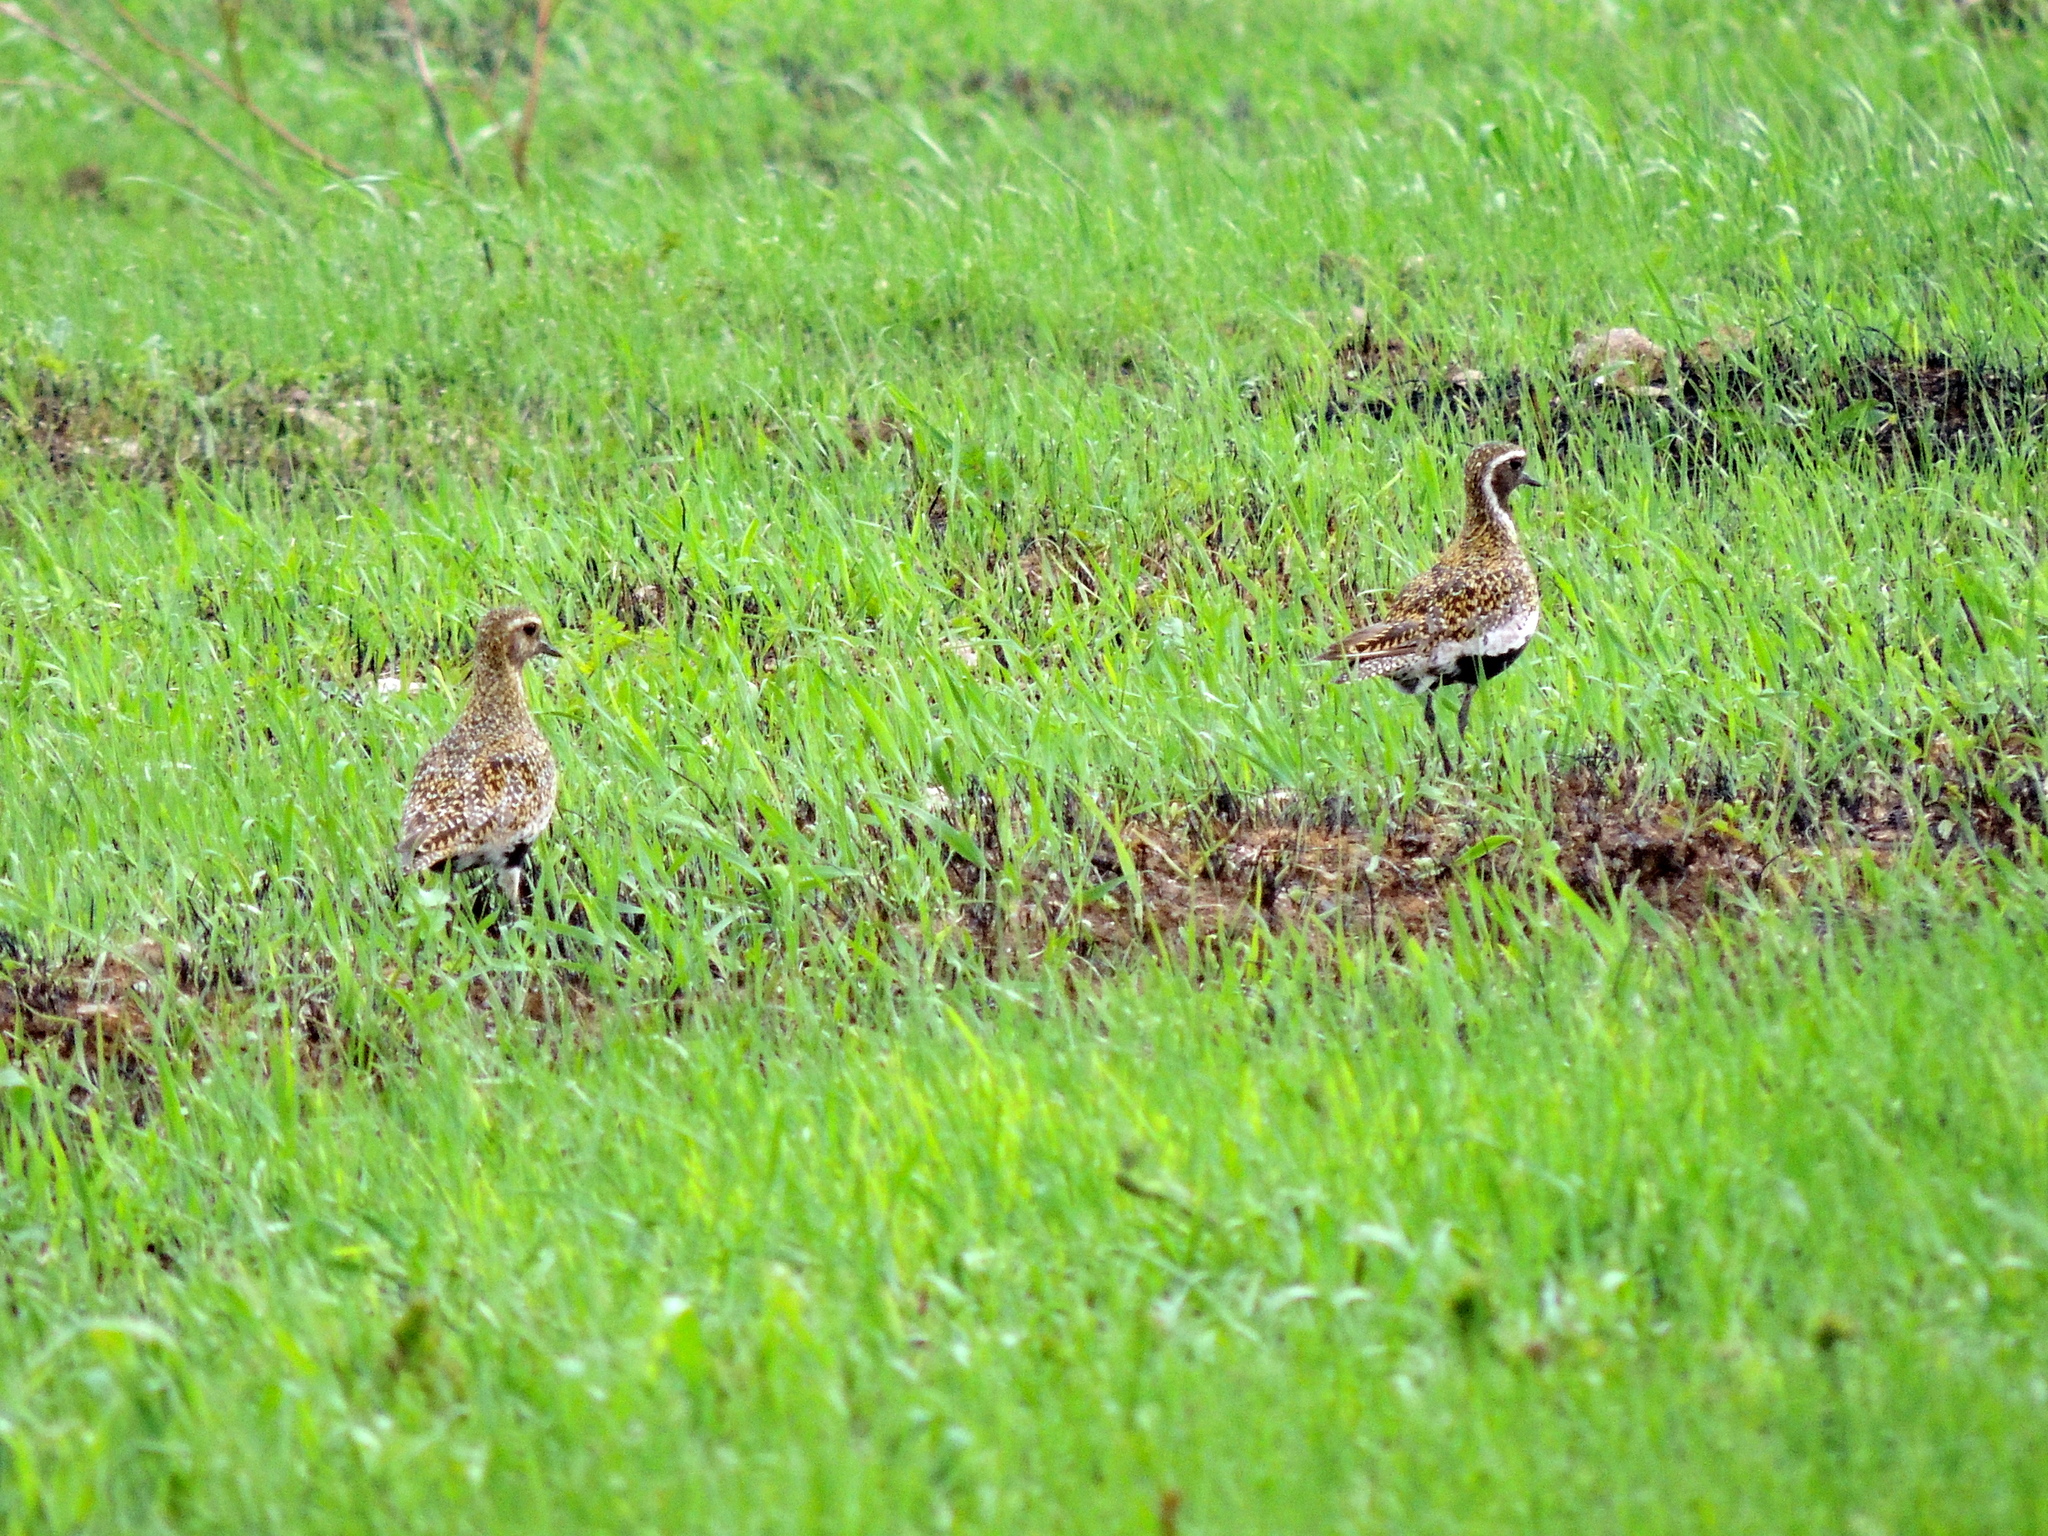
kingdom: Animalia
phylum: Chordata
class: Aves
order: Charadriiformes
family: Charadriidae
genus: Pluvialis
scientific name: Pluvialis apricaria
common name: European golden plover
